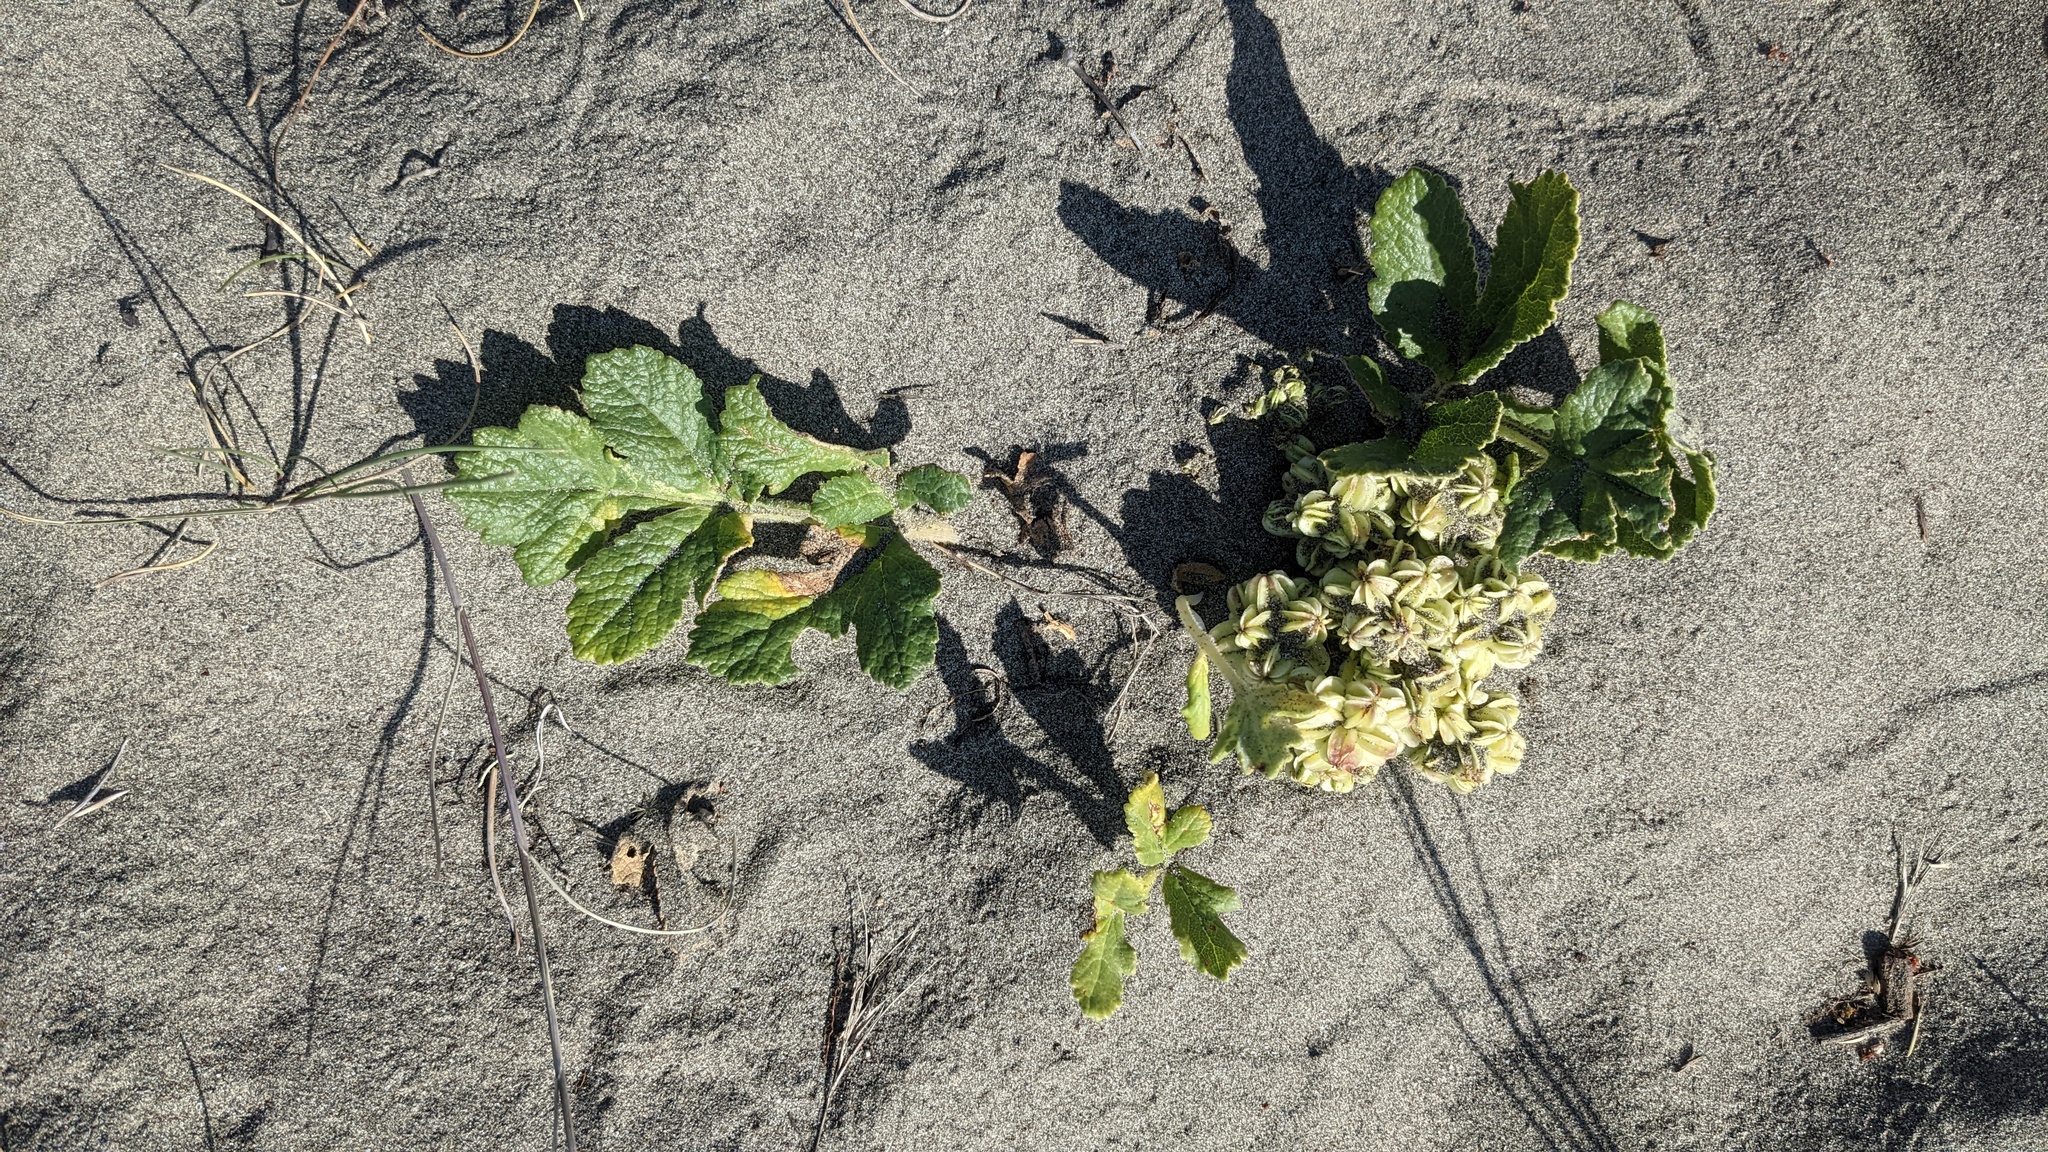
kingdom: Plantae
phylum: Tracheophyta
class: Magnoliopsida
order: Apiales
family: Apiaceae
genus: Angelica
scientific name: Angelica leiocarpa
